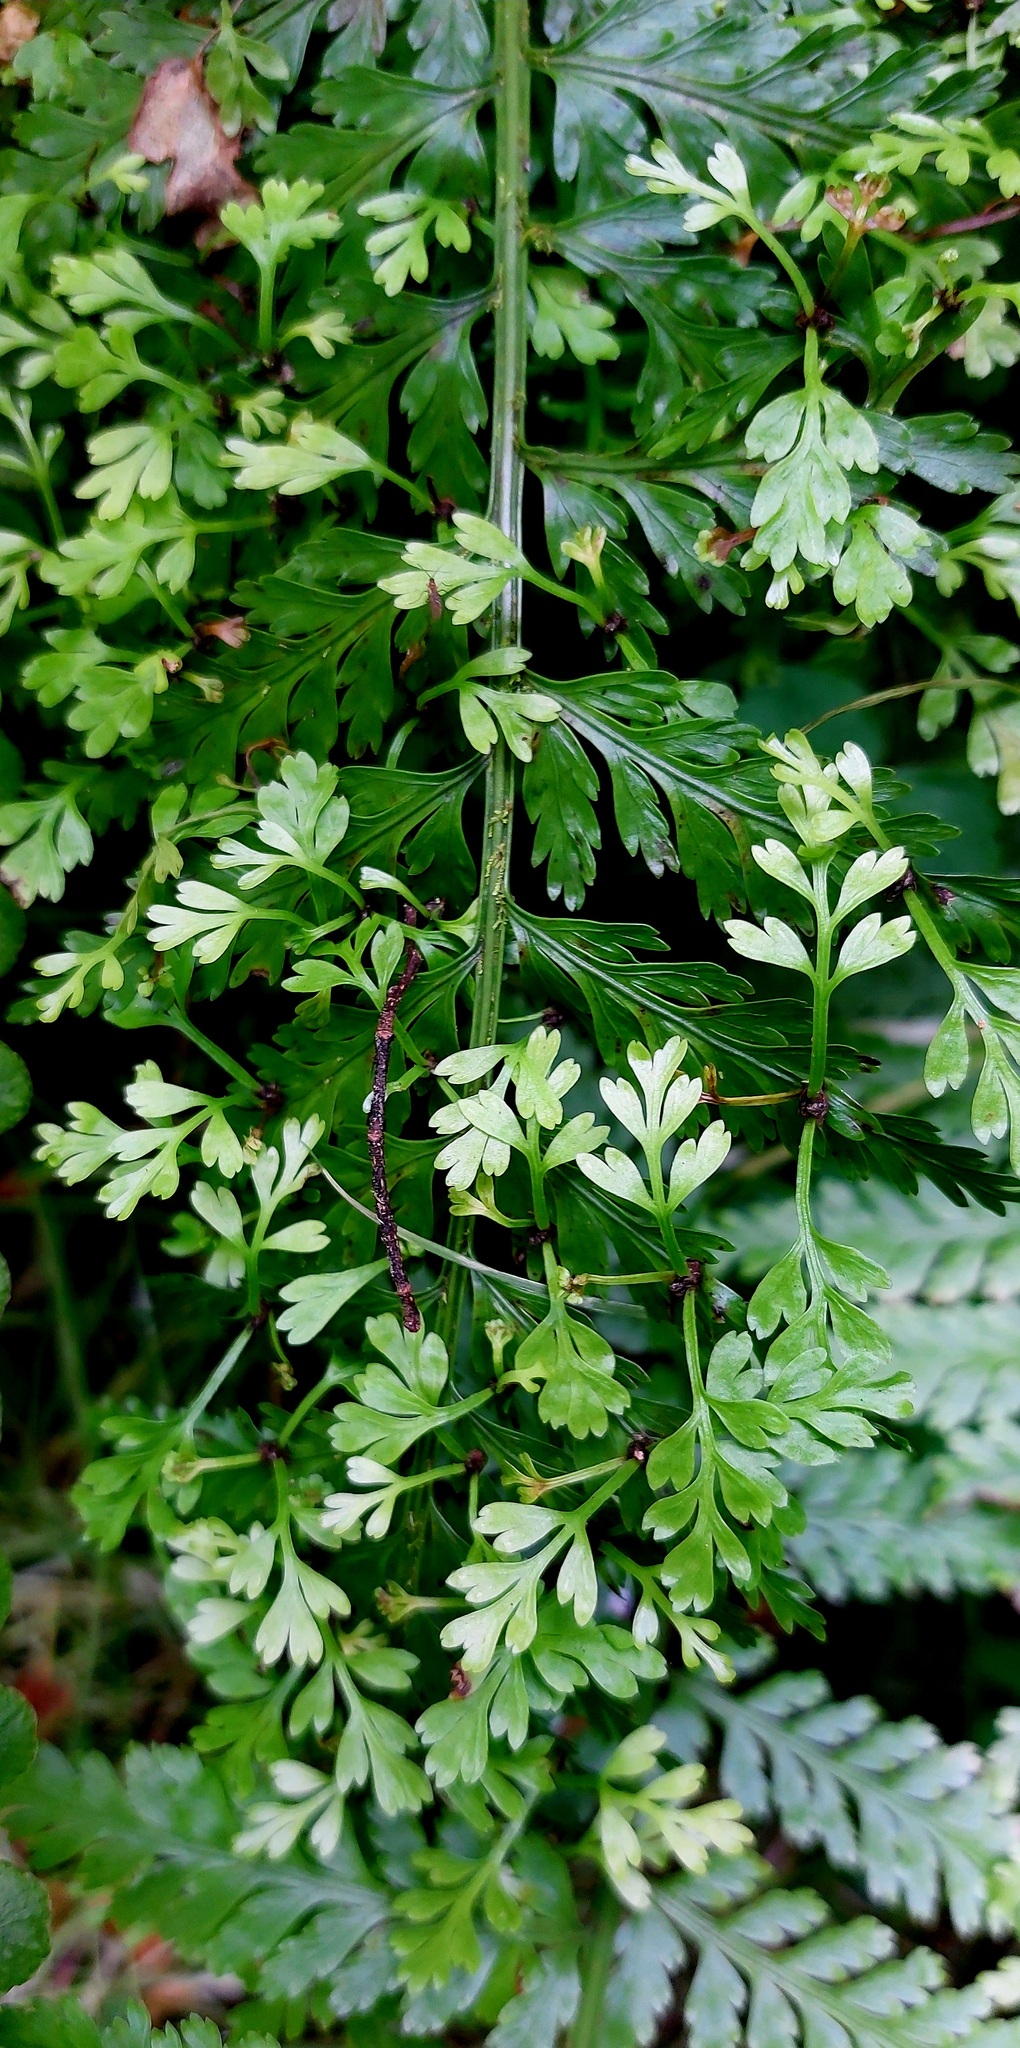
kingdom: Plantae
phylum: Tracheophyta
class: Polypodiopsida
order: Polypodiales
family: Aspleniaceae
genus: Asplenium
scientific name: Asplenium bulbiferum
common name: Mother fern
